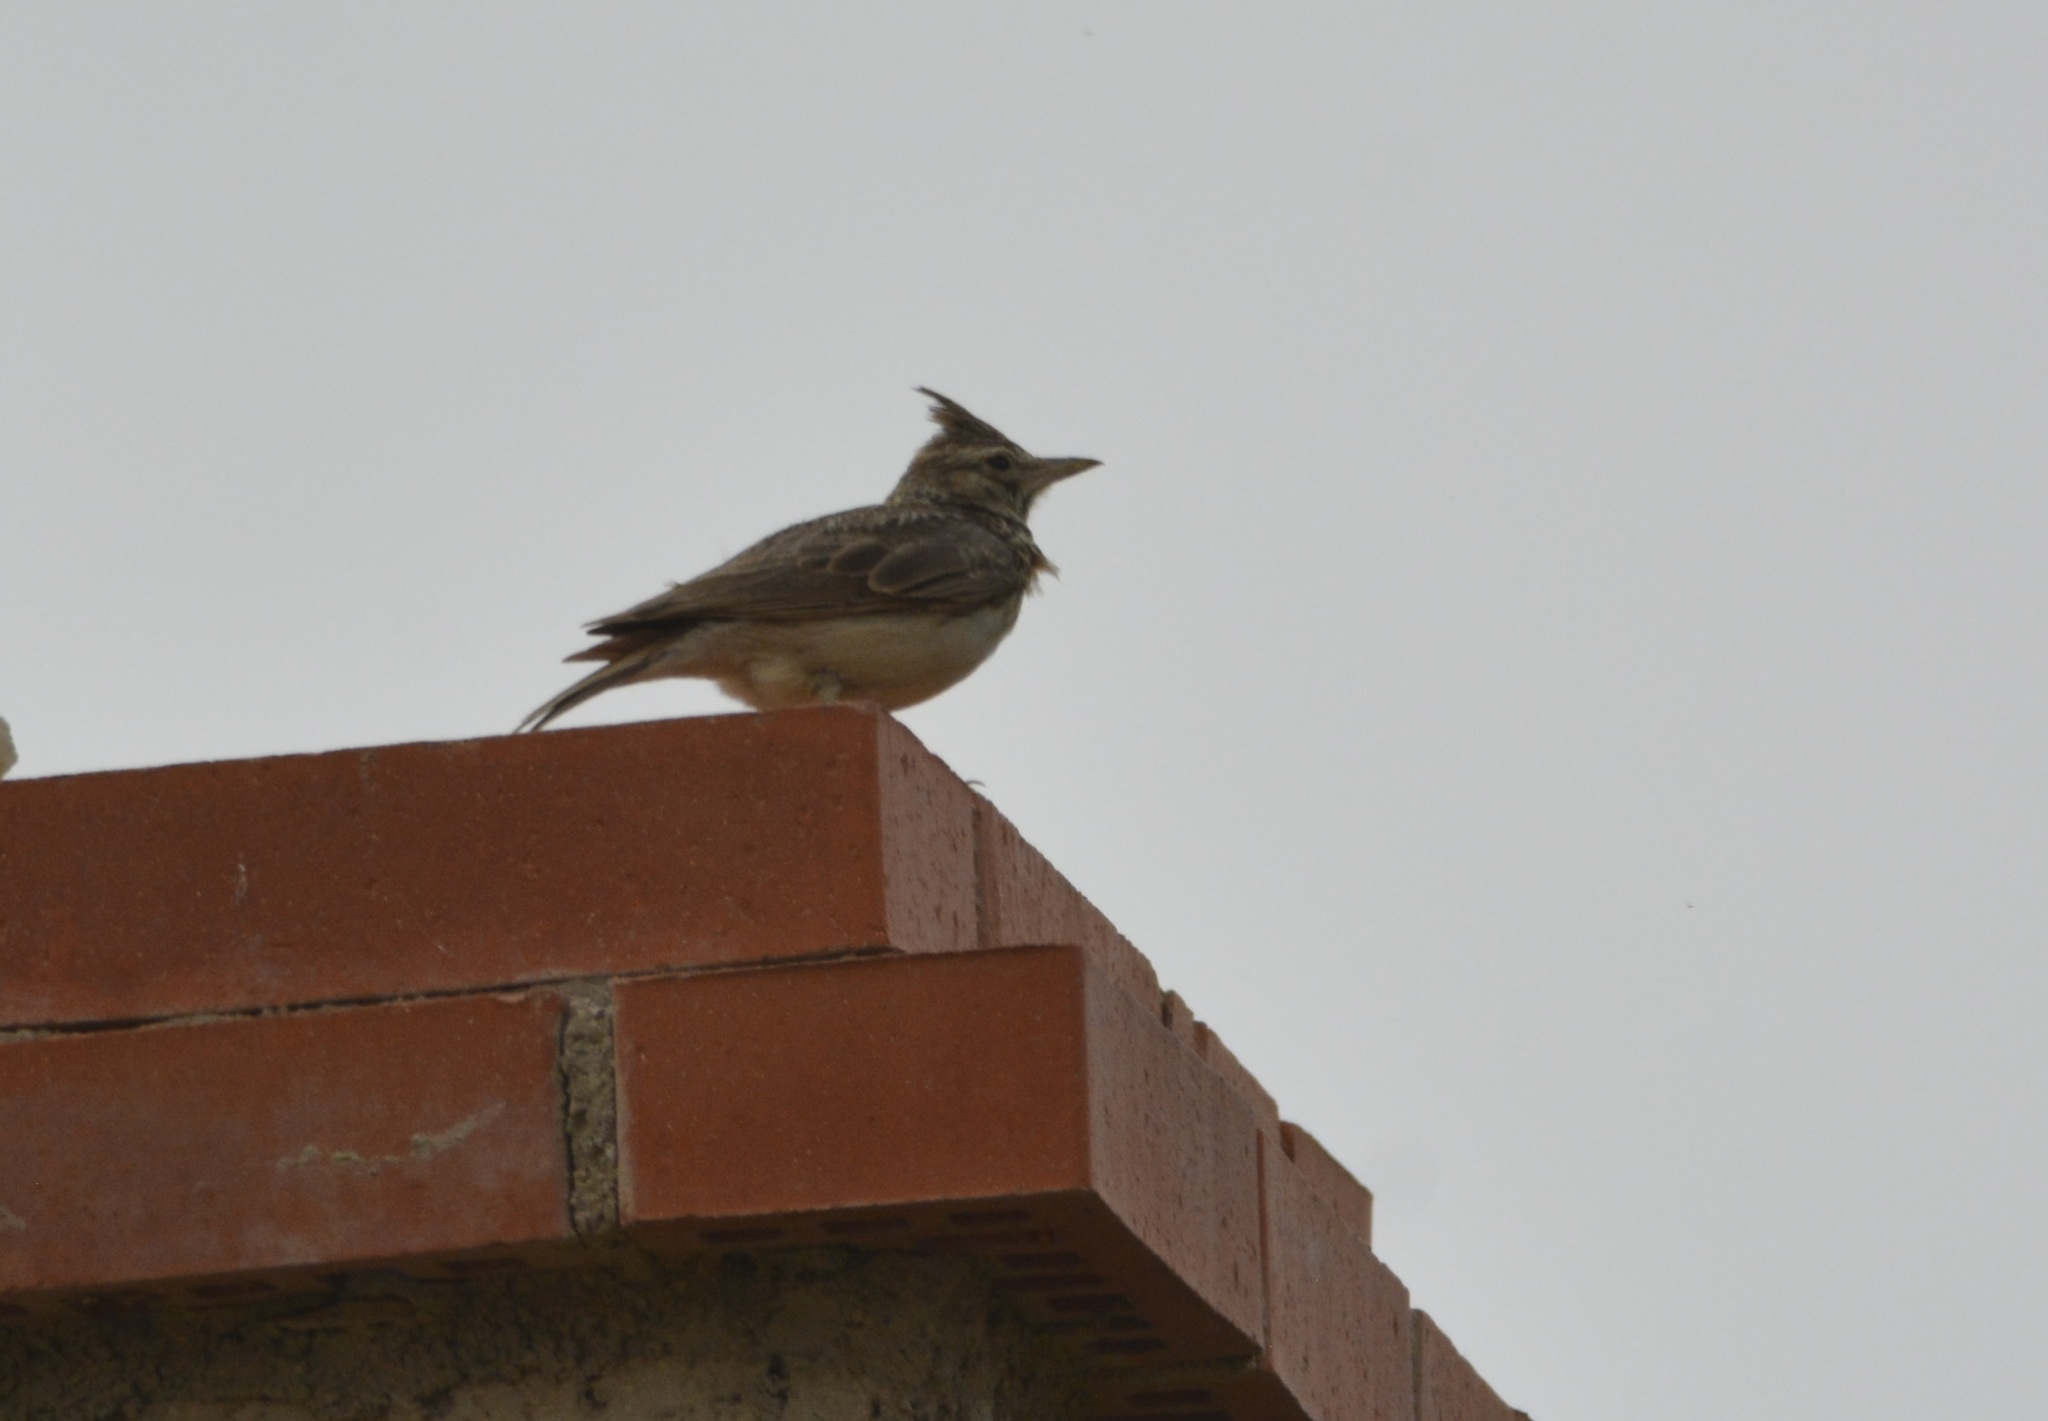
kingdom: Animalia
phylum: Chordata
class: Aves
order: Passeriformes
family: Alaudidae
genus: Galerida
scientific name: Galerida theklae
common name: Thekla lark
